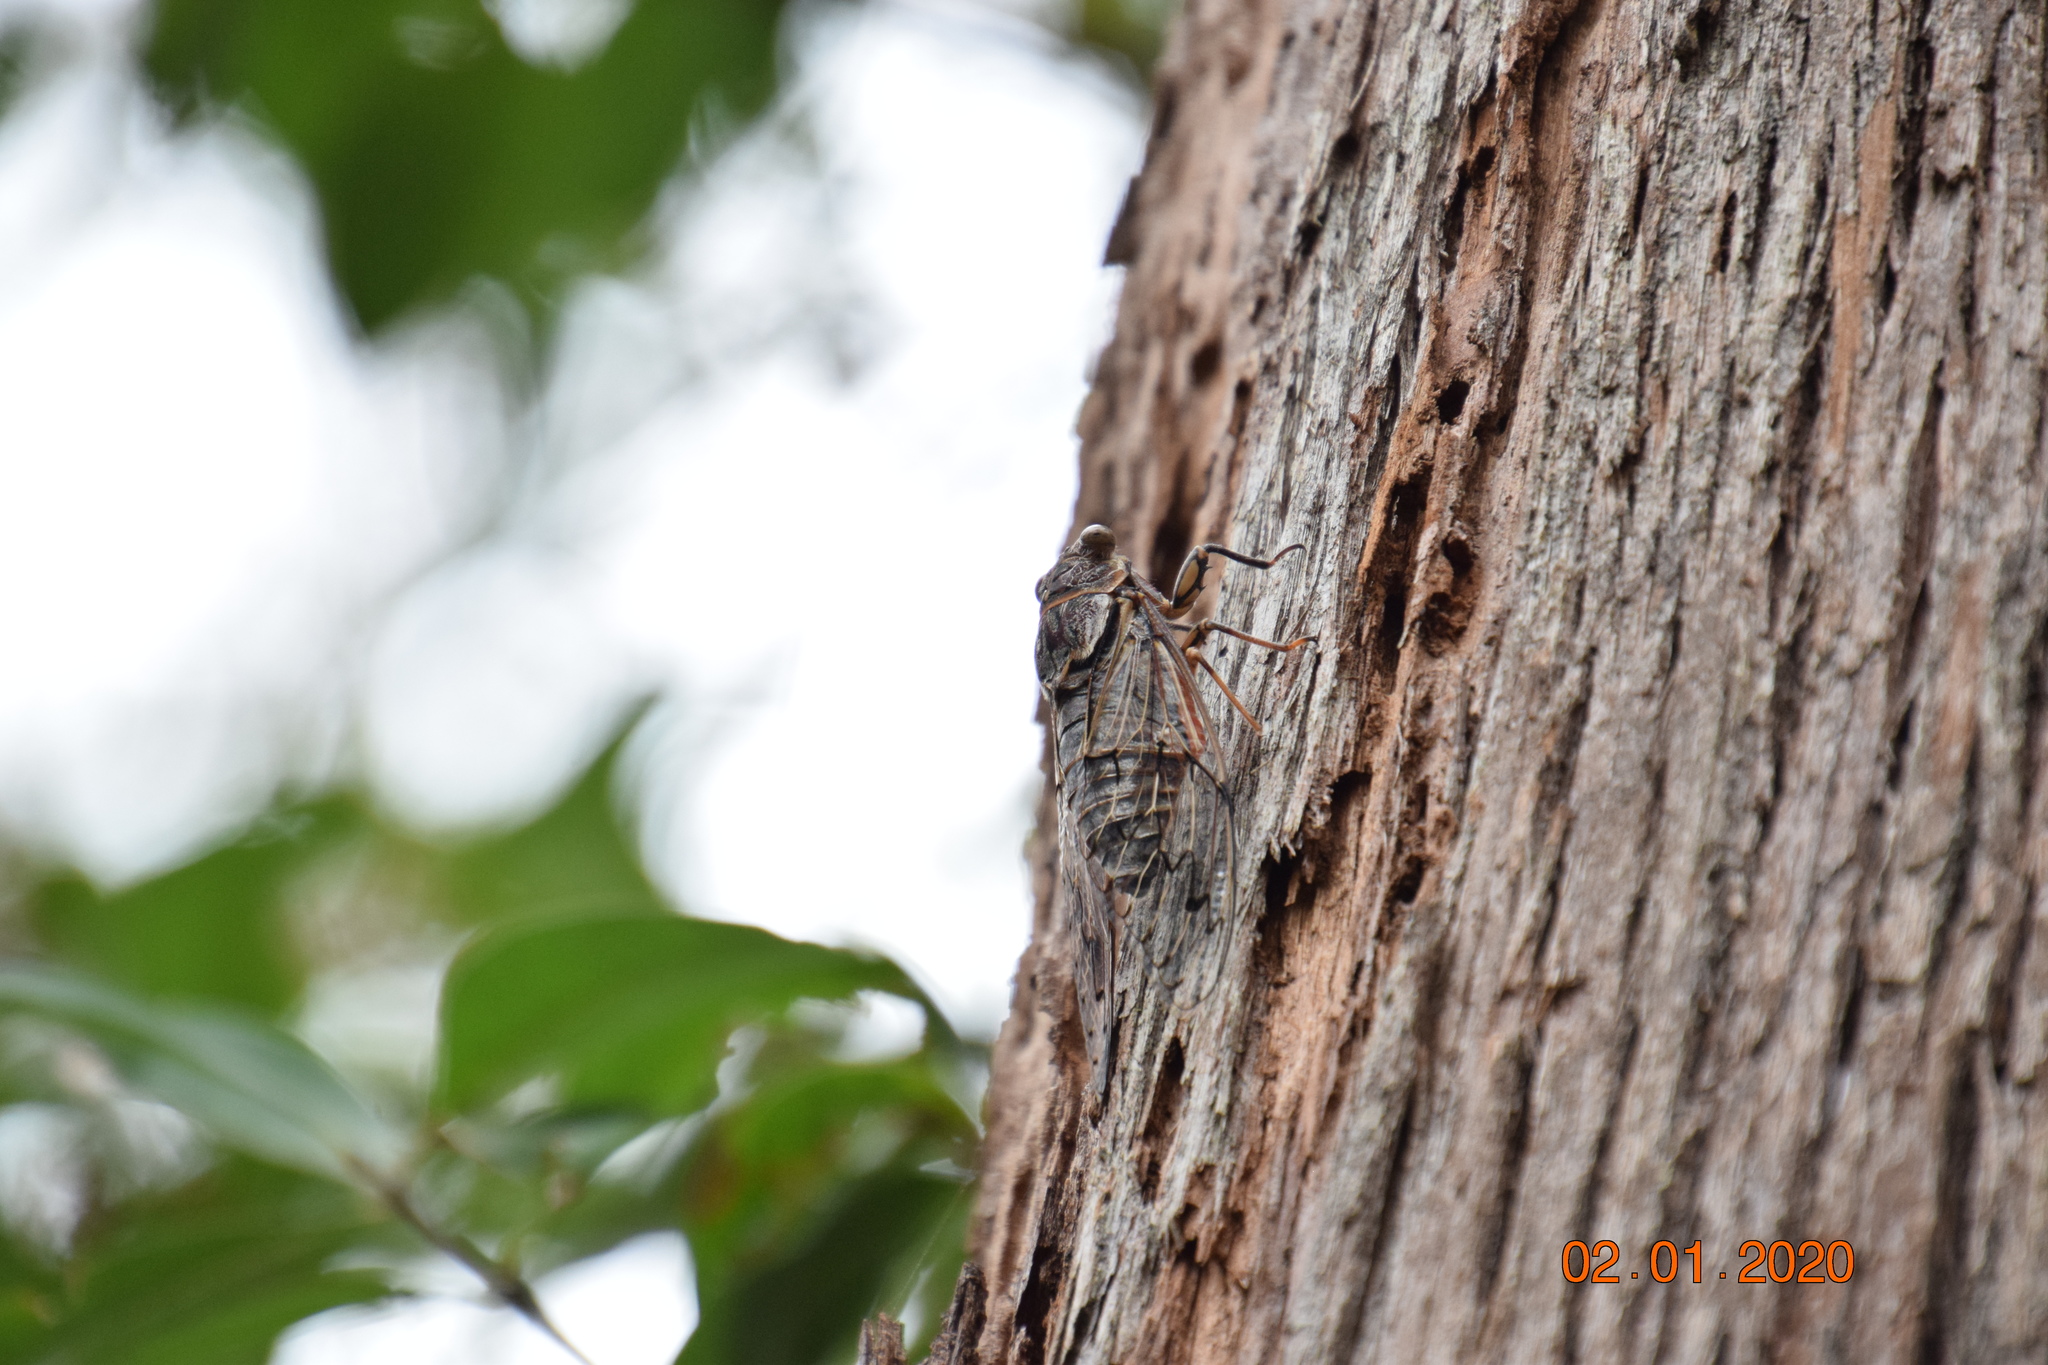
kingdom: Animalia
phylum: Arthropoda
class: Insecta
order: Hemiptera
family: Cicadidae
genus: Henicopsaltria
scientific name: Henicopsaltria eydouxii
